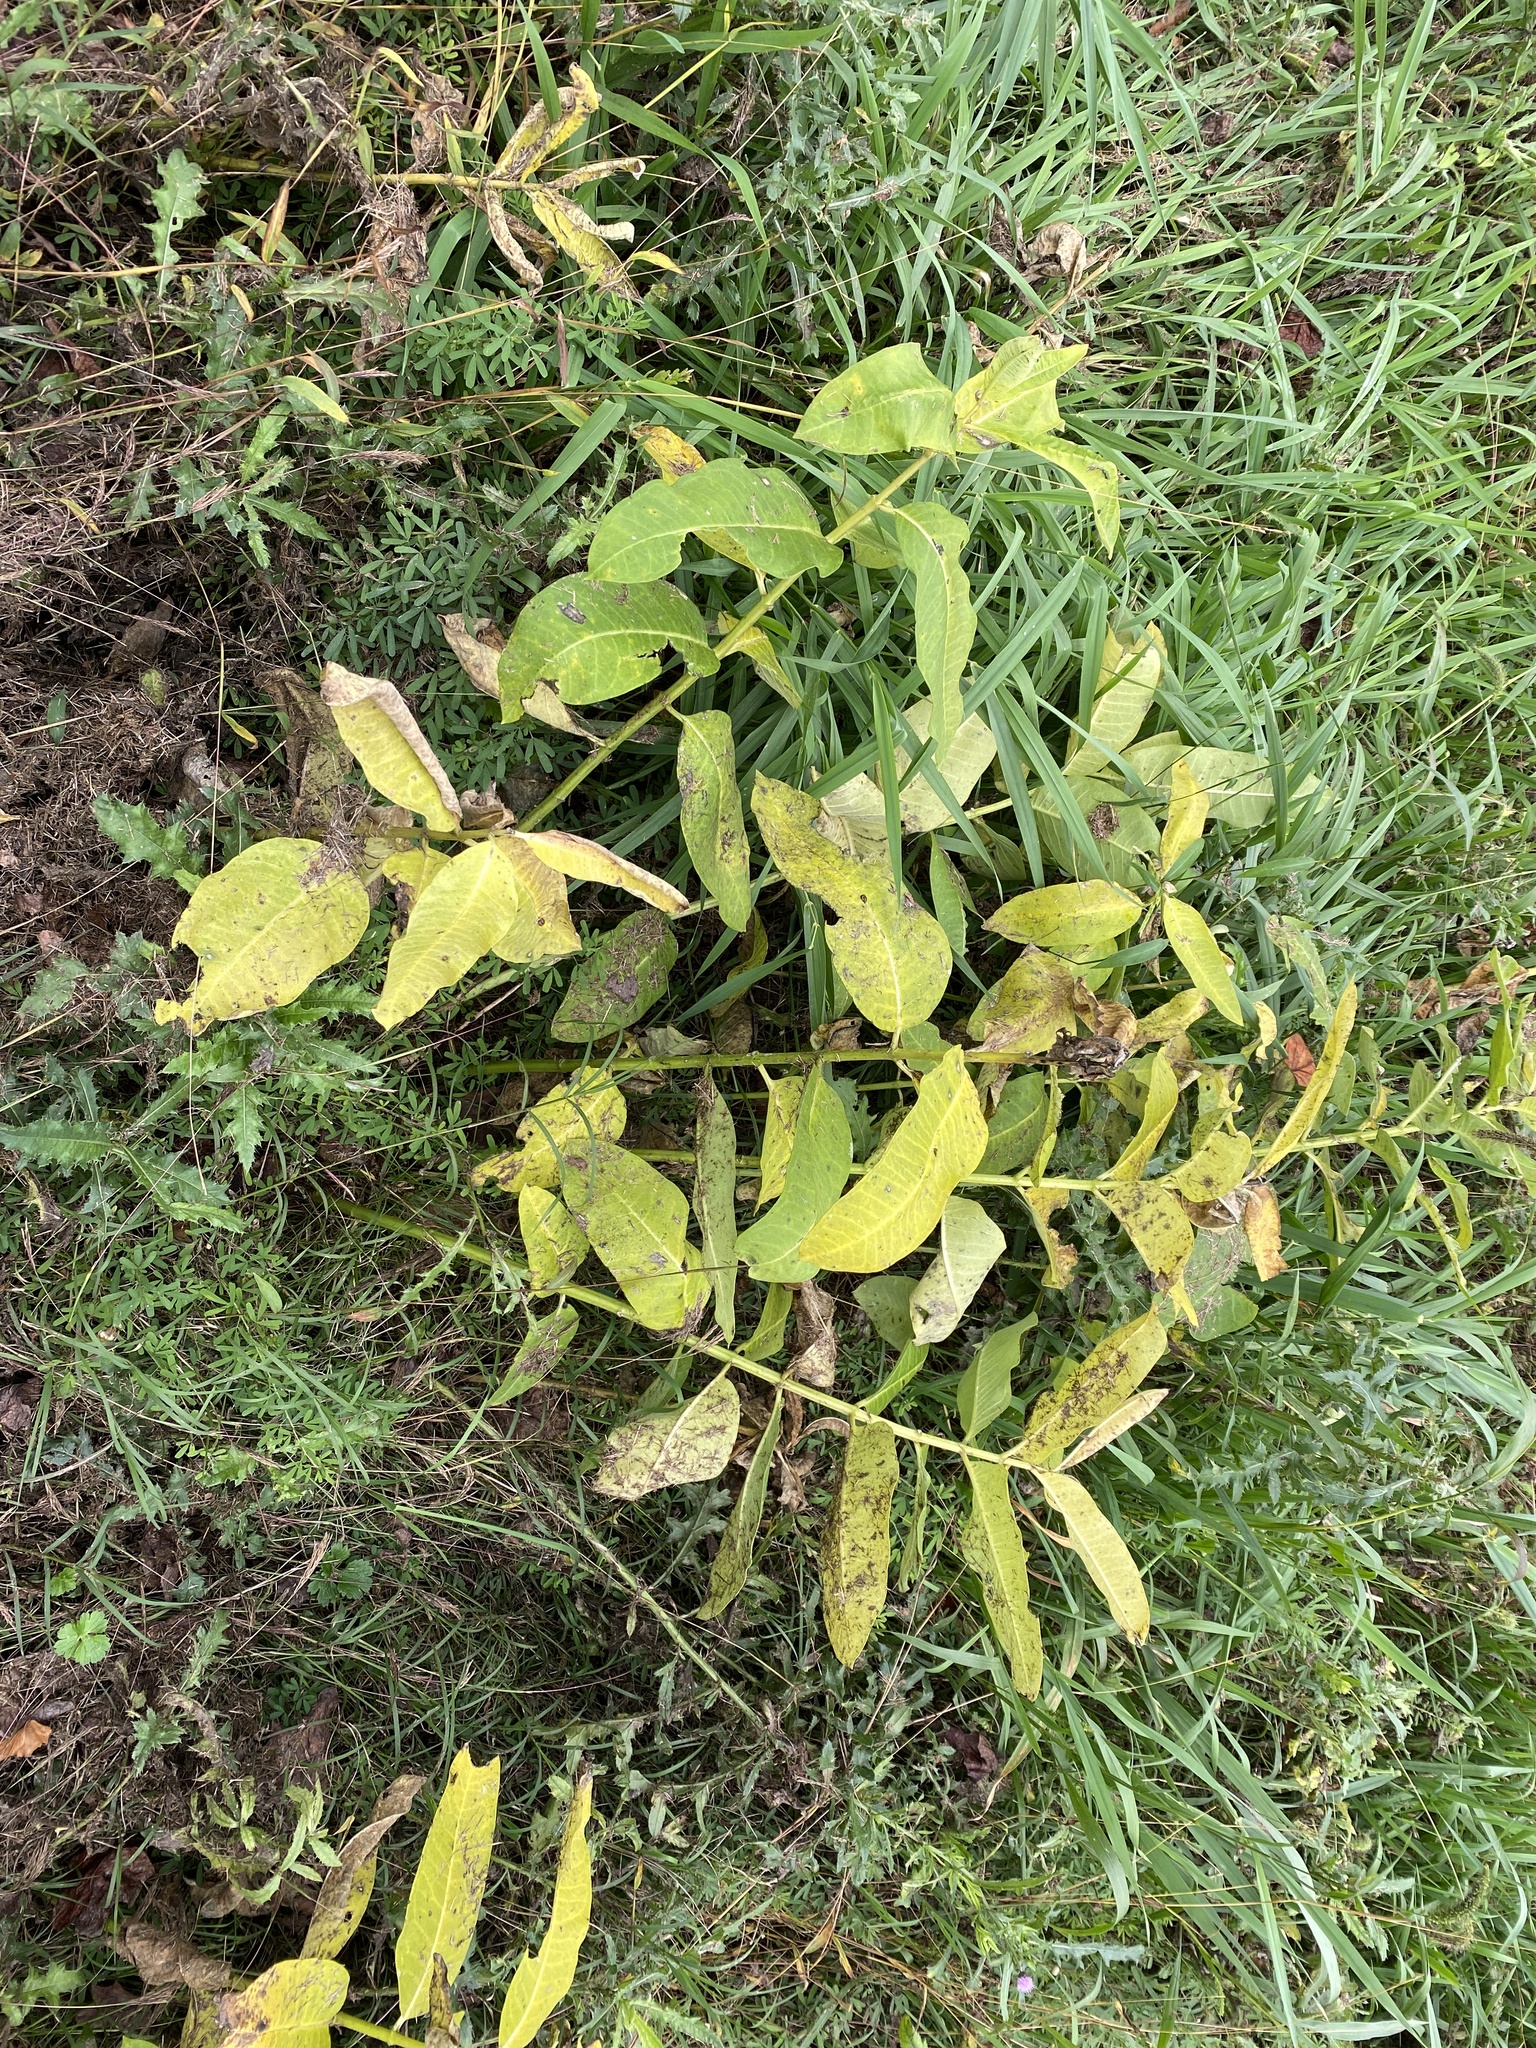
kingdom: Plantae
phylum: Tracheophyta
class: Magnoliopsida
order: Gentianales
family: Apocynaceae
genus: Asclepias
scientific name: Asclepias syriaca
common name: Common milkweed
